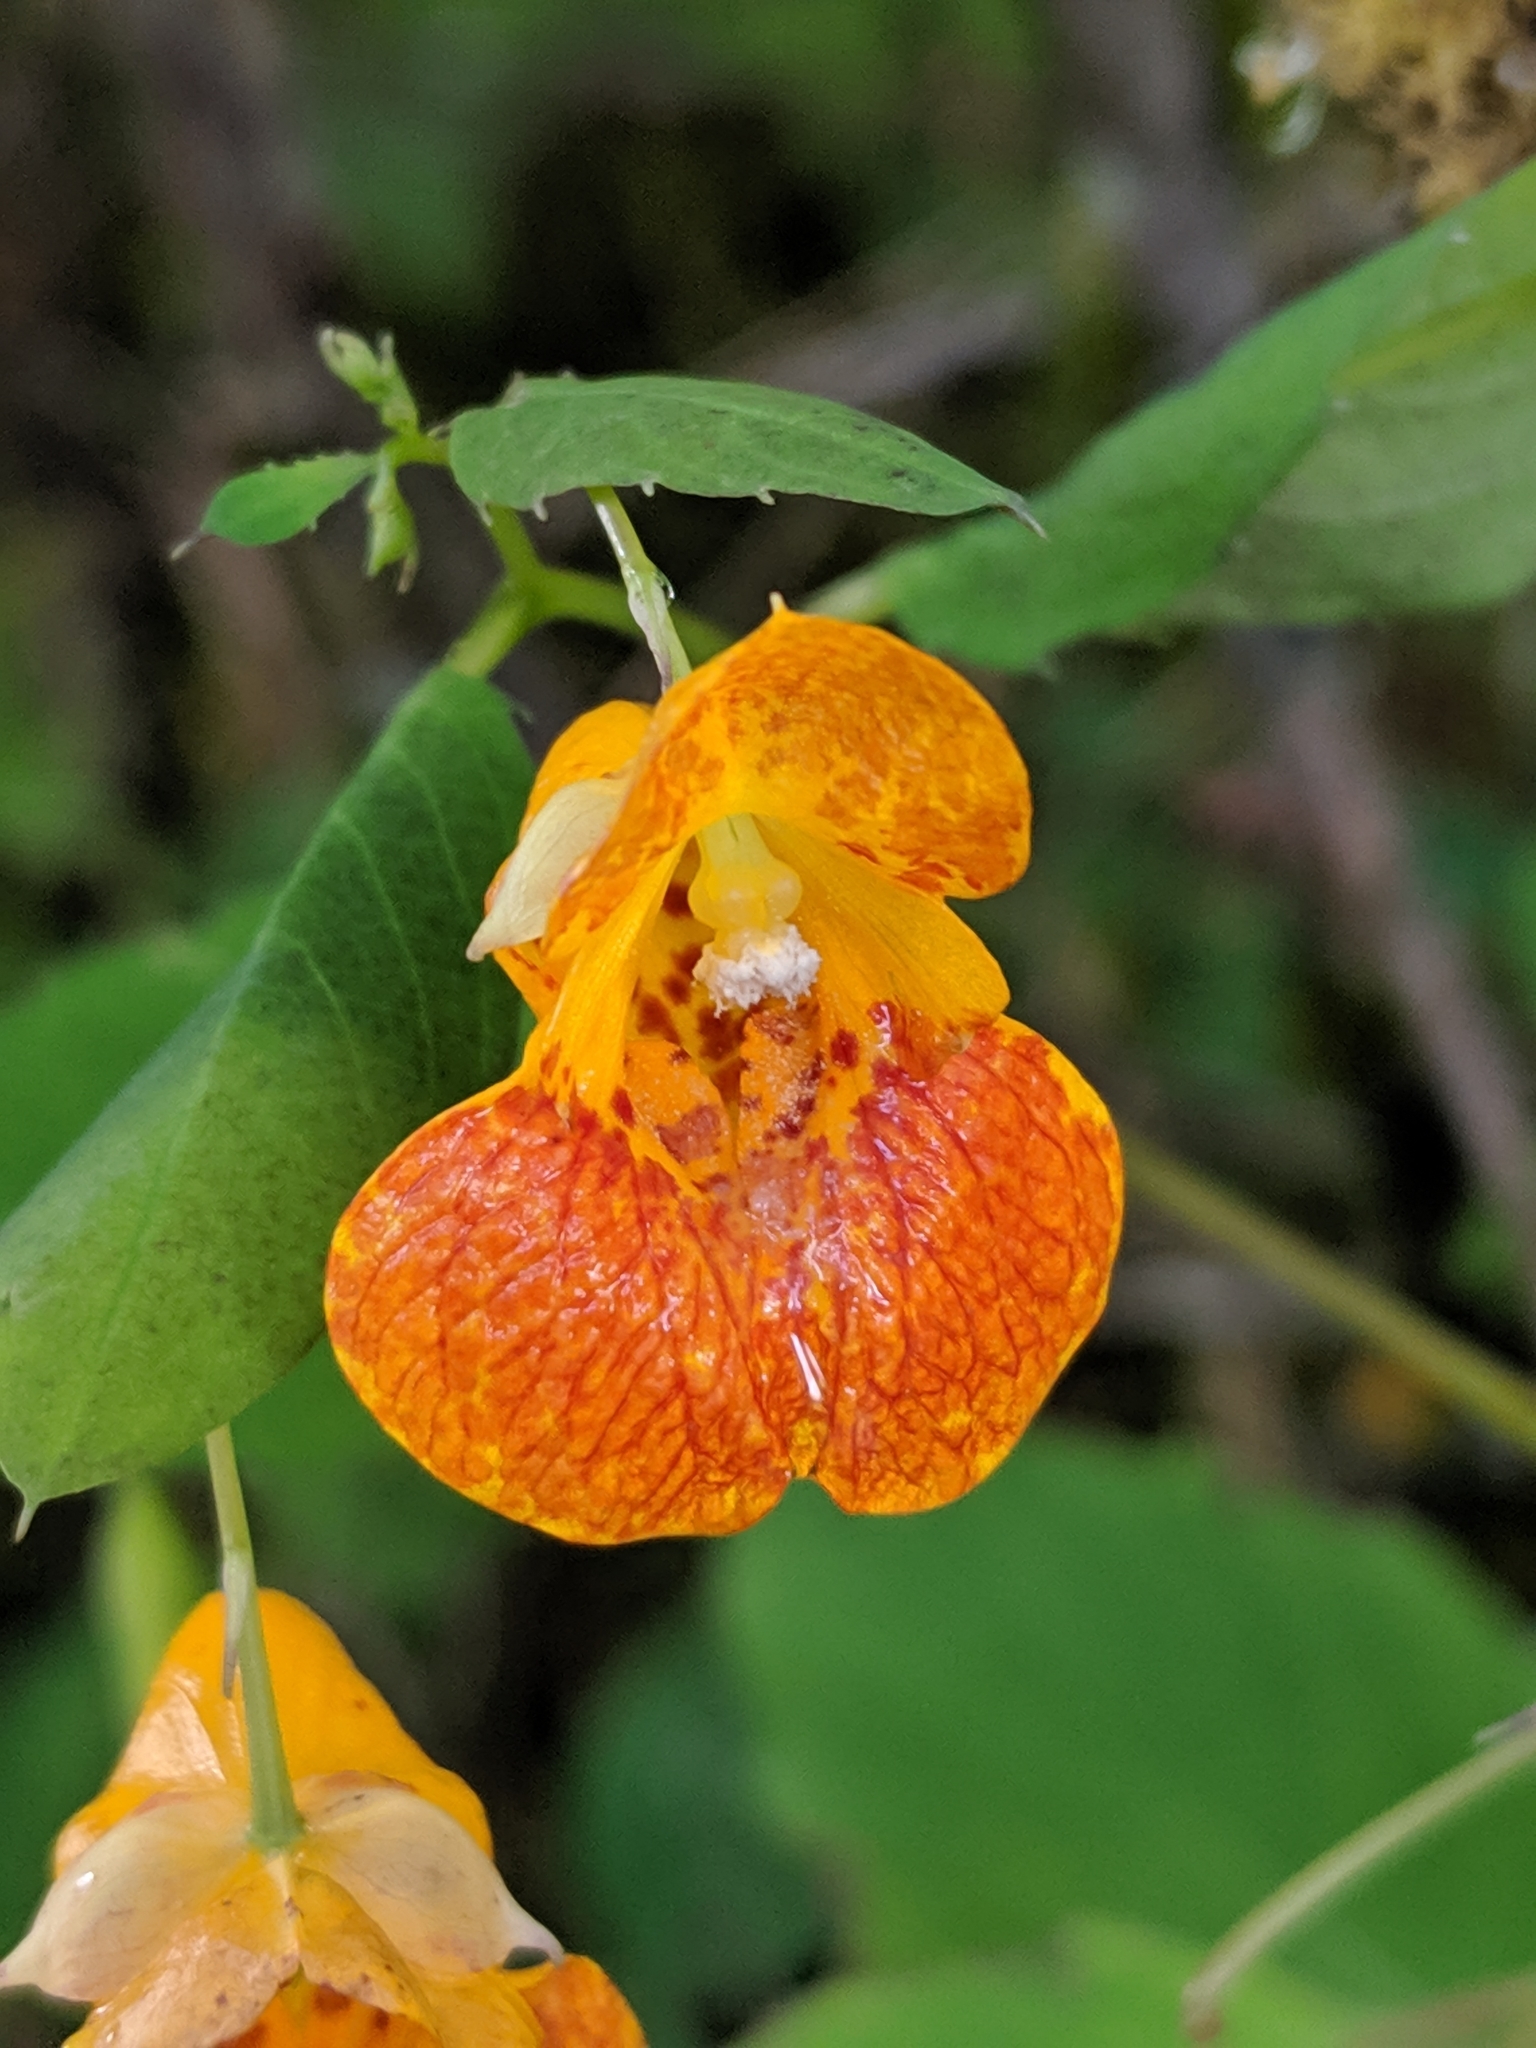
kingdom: Plantae
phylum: Tracheophyta
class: Magnoliopsida
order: Ericales
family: Balsaminaceae
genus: Impatiens
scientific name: Impatiens pacifica
